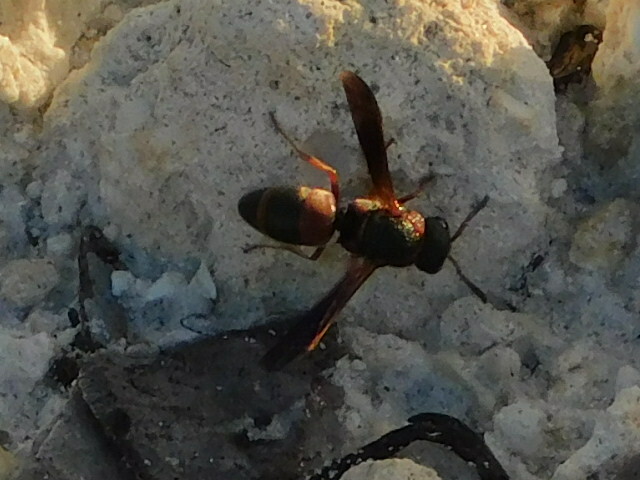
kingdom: Animalia
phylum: Arthropoda
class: Insecta
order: Hymenoptera
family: Eumenidae
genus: Pachodynerus
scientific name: Pachodynerus erynnis
